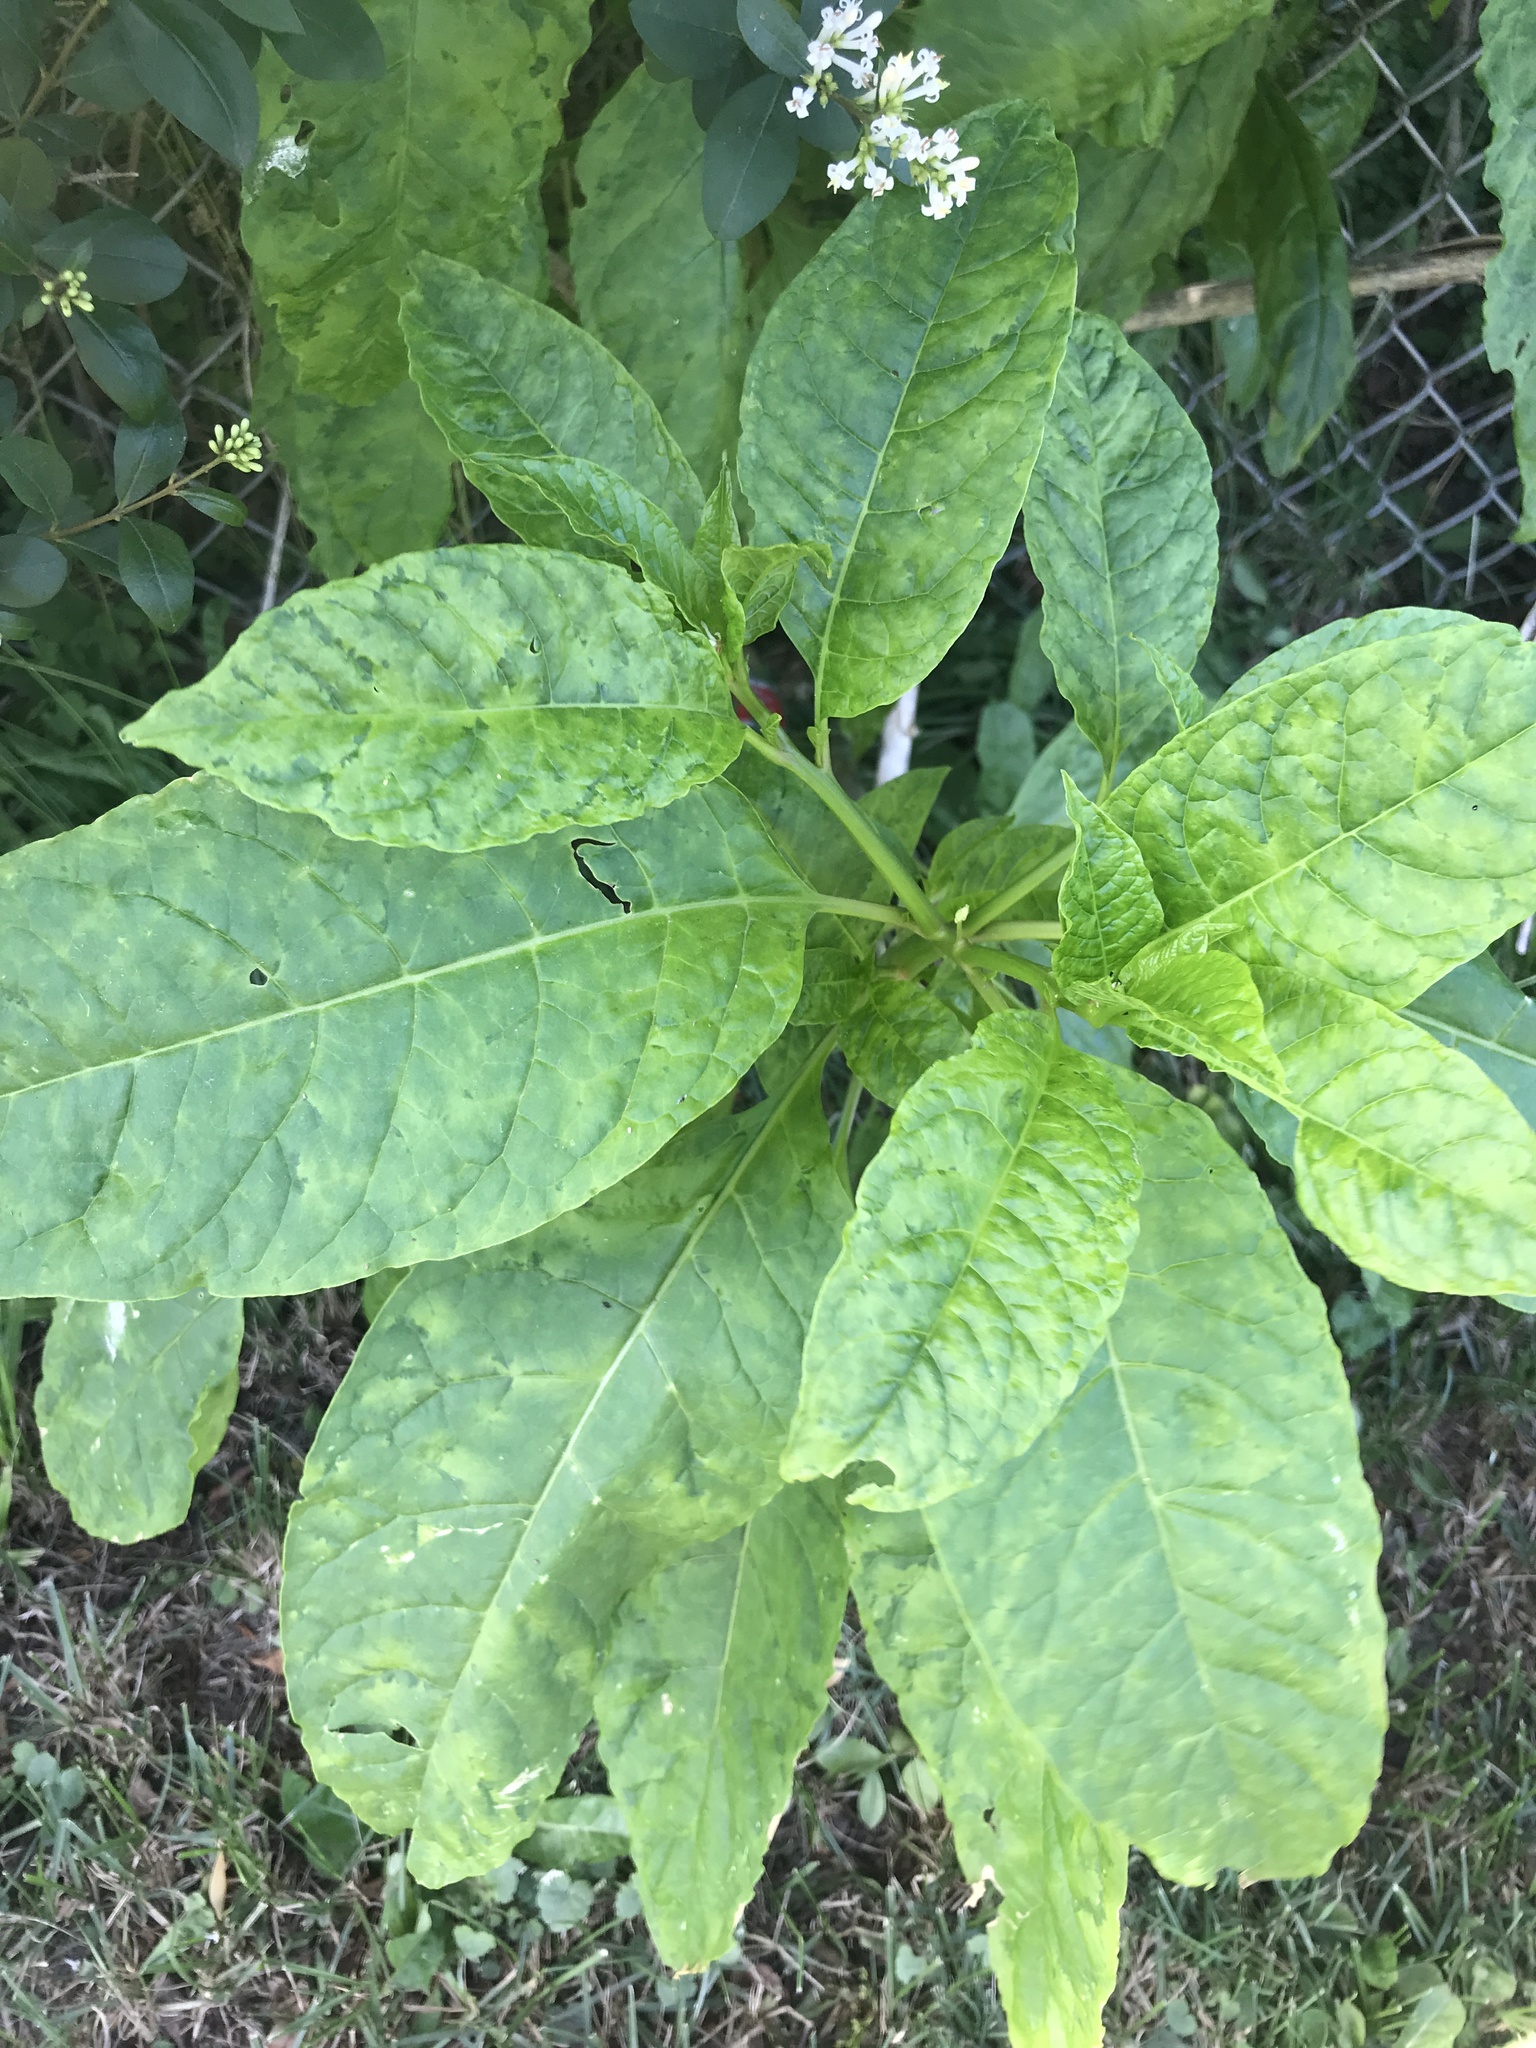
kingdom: Plantae
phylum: Tracheophyta
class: Magnoliopsida
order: Caryophyllales
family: Phytolaccaceae
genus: Phytolacca
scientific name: Phytolacca americana
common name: American pokeweed
